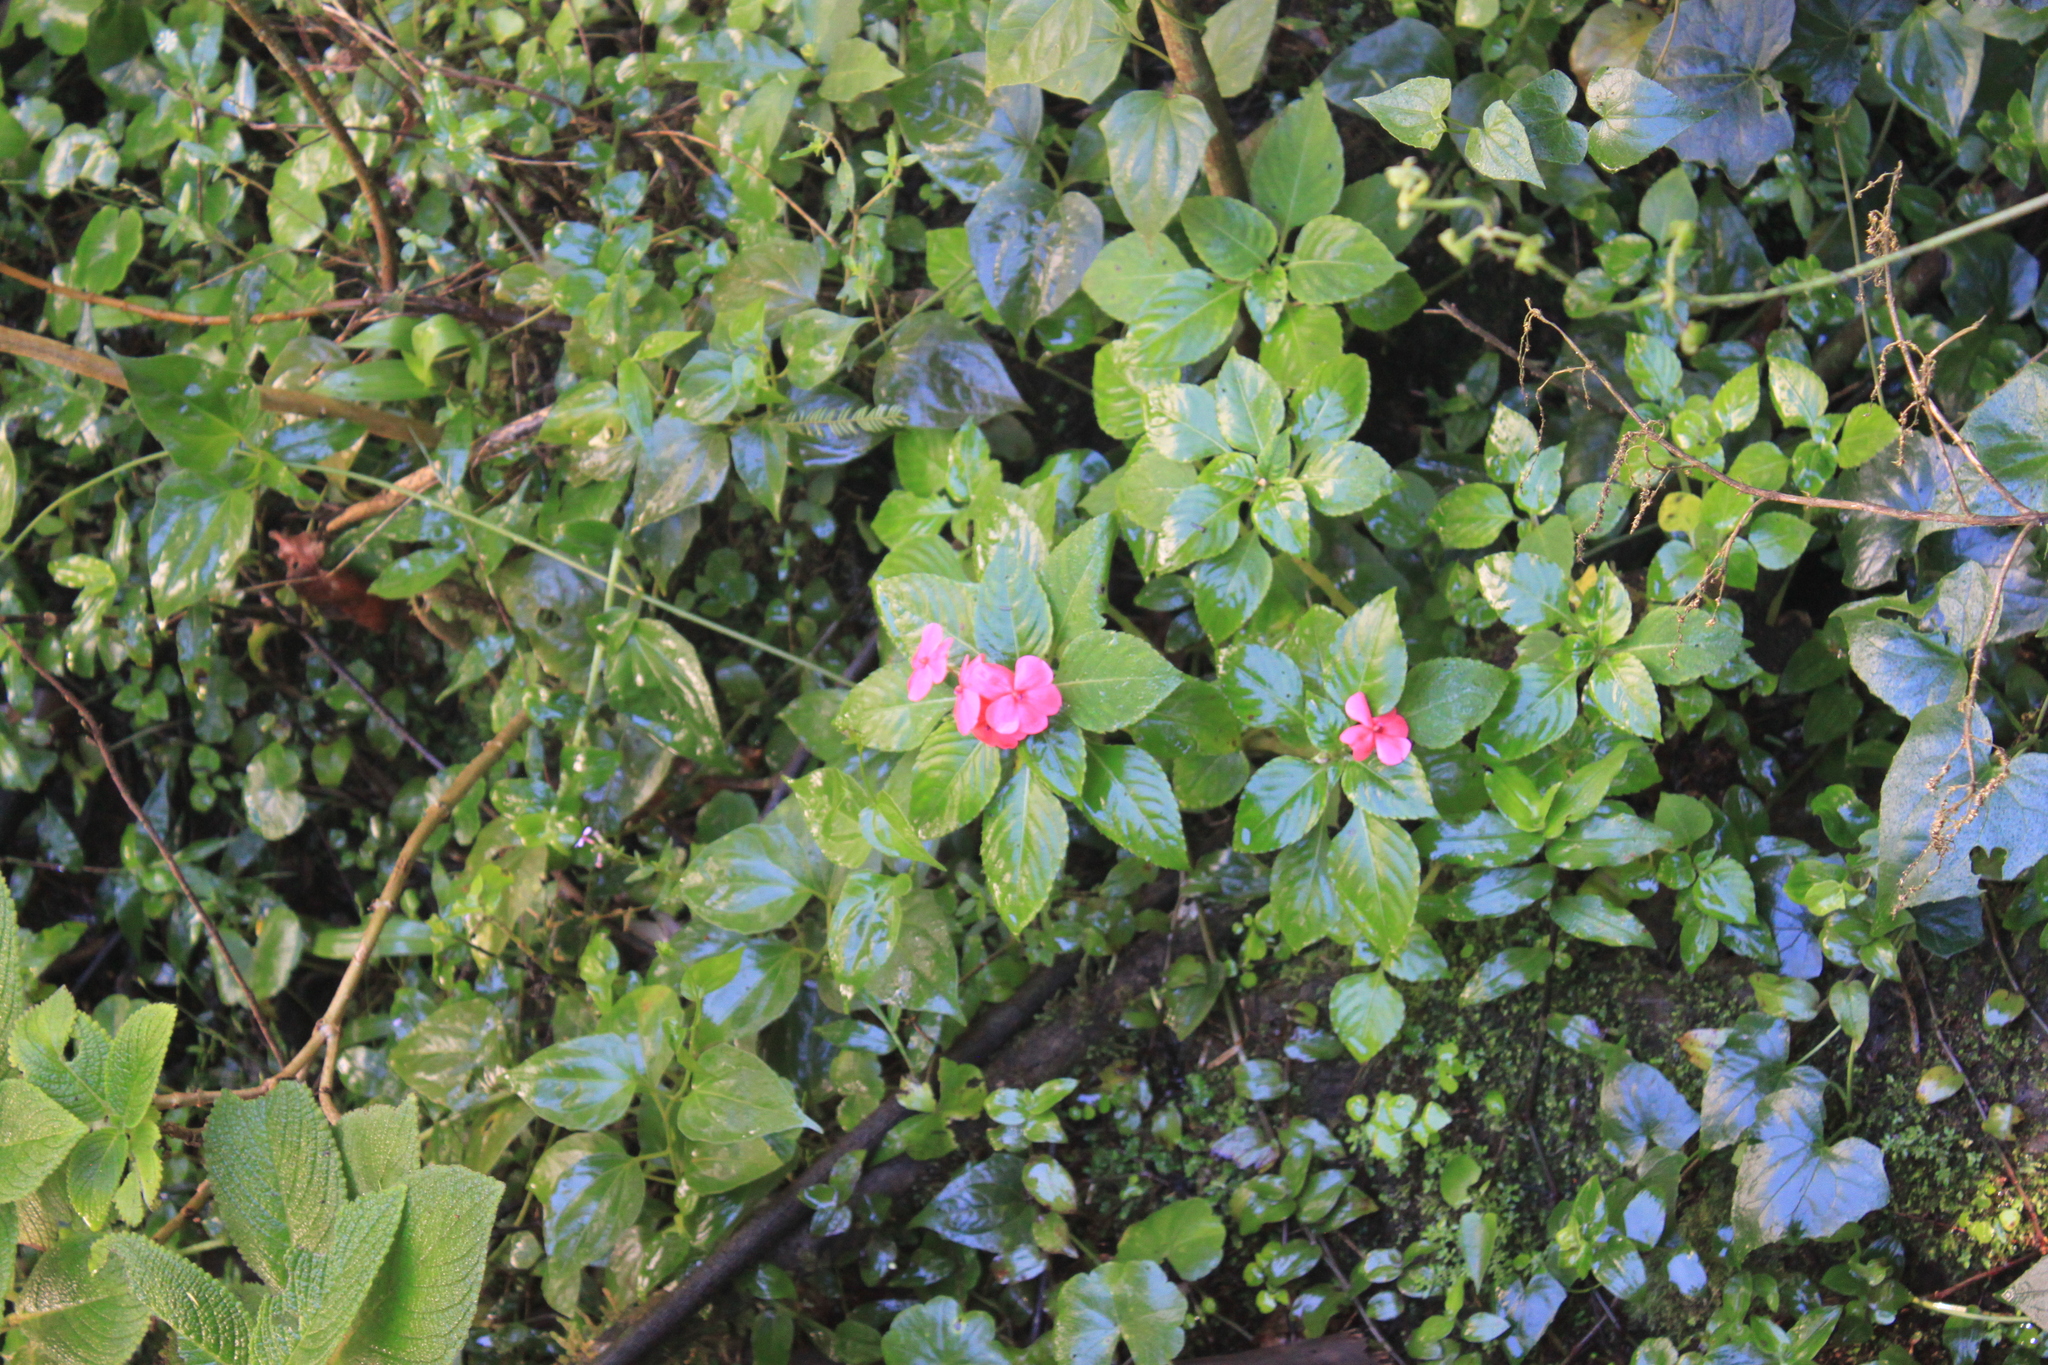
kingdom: Plantae
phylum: Tracheophyta
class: Magnoliopsida
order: Ericales
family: Balsaminaceae
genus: Impatiens
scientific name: Impatiens walleriana
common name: Buzzy lizzy
